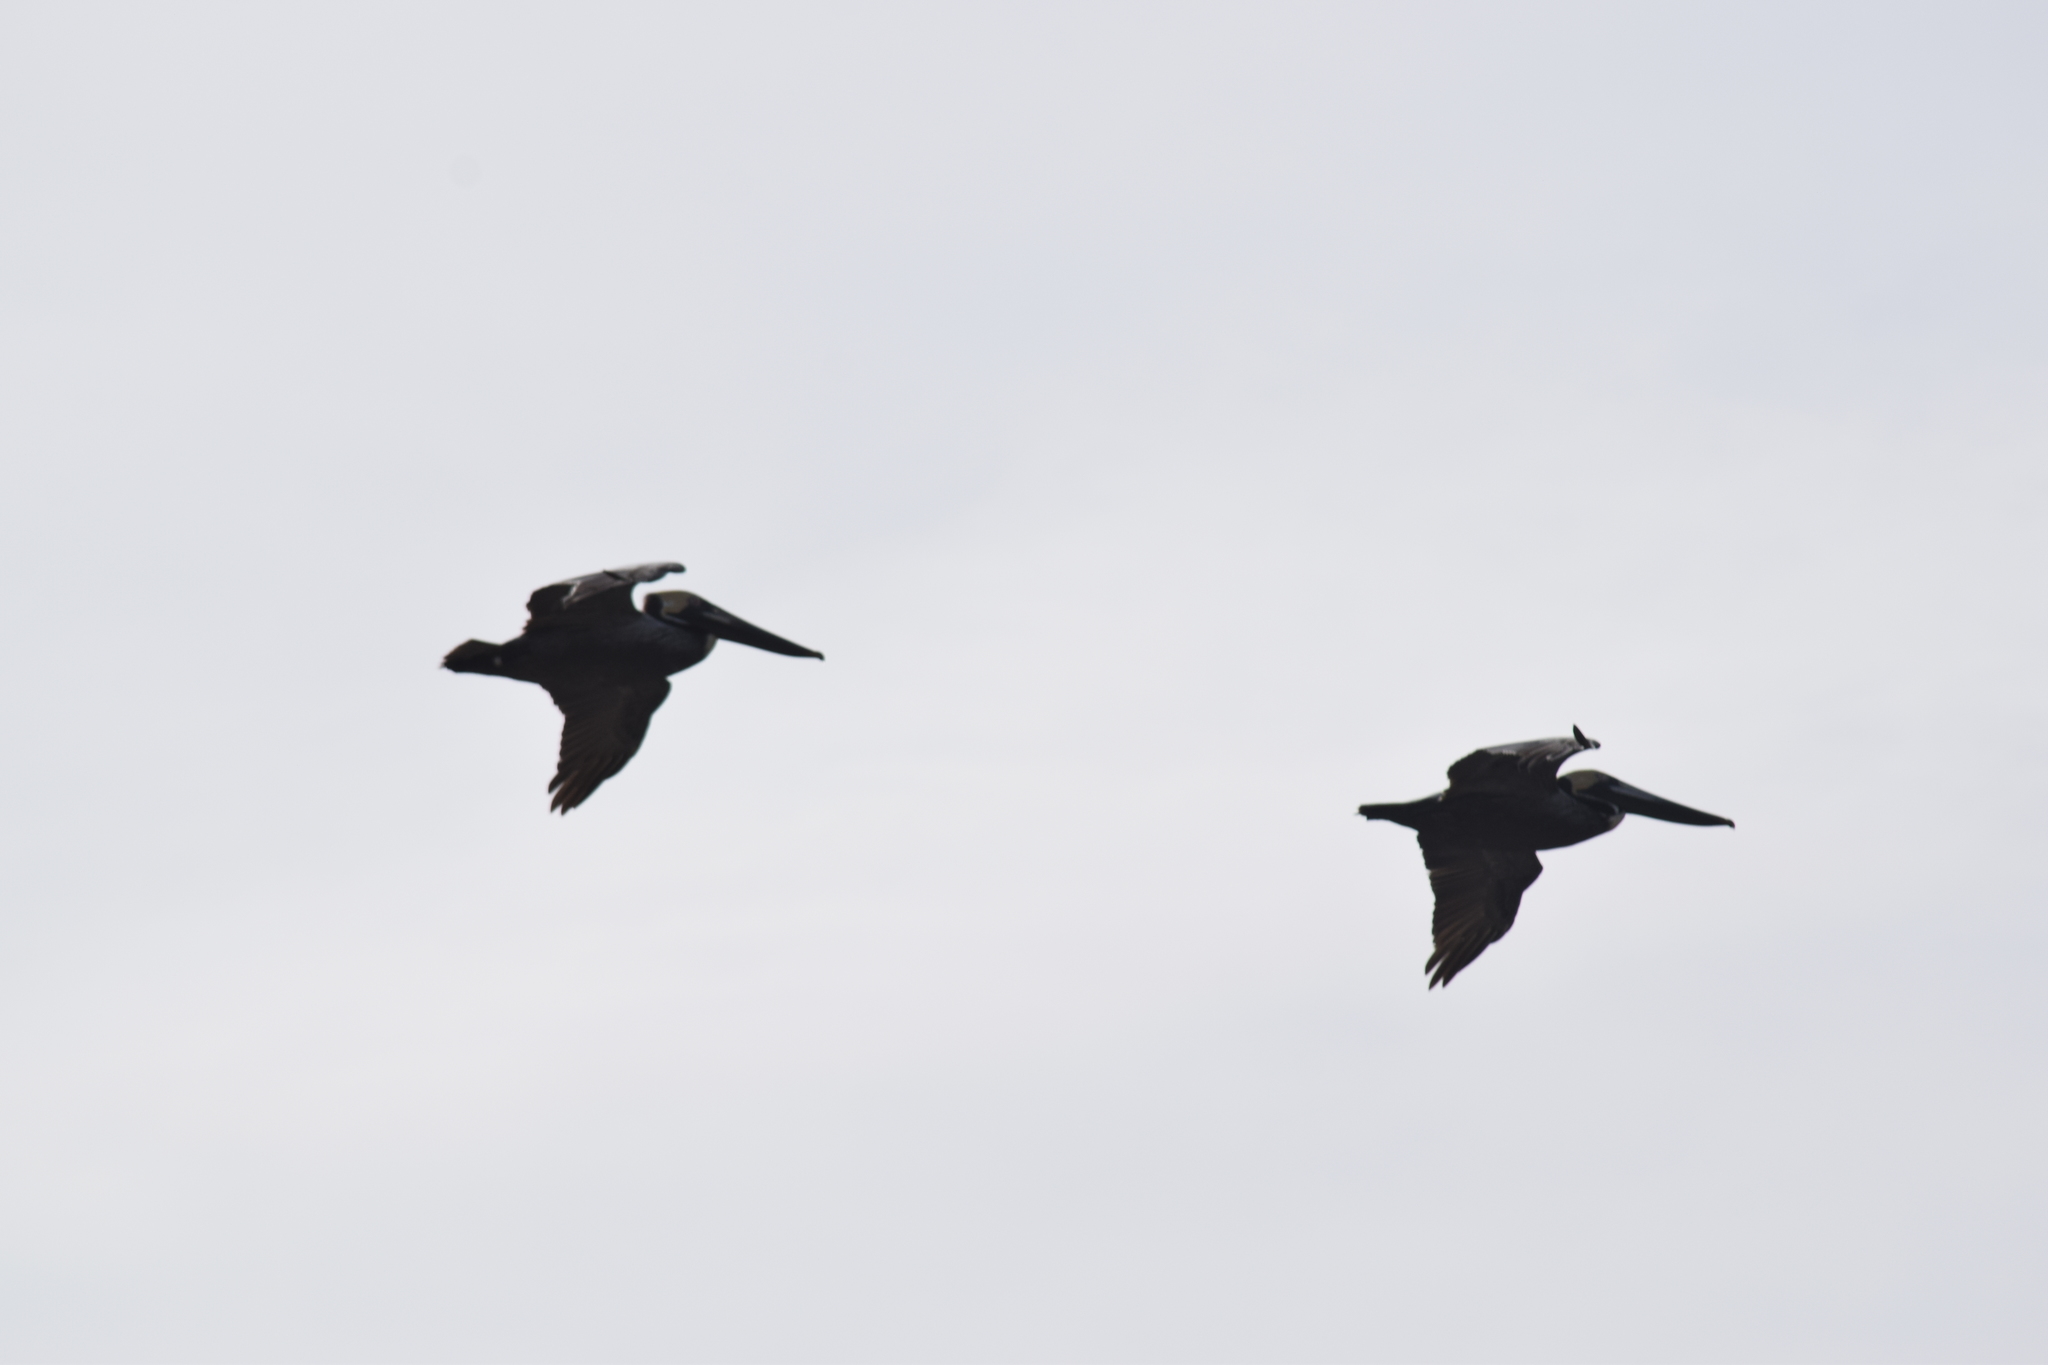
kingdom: Animalia
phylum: Chordata
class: Aves
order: Pelecaniformes
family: Pelecanidae
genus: Pelecanus
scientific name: Pelecanus occidentalis
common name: Brown pelican
